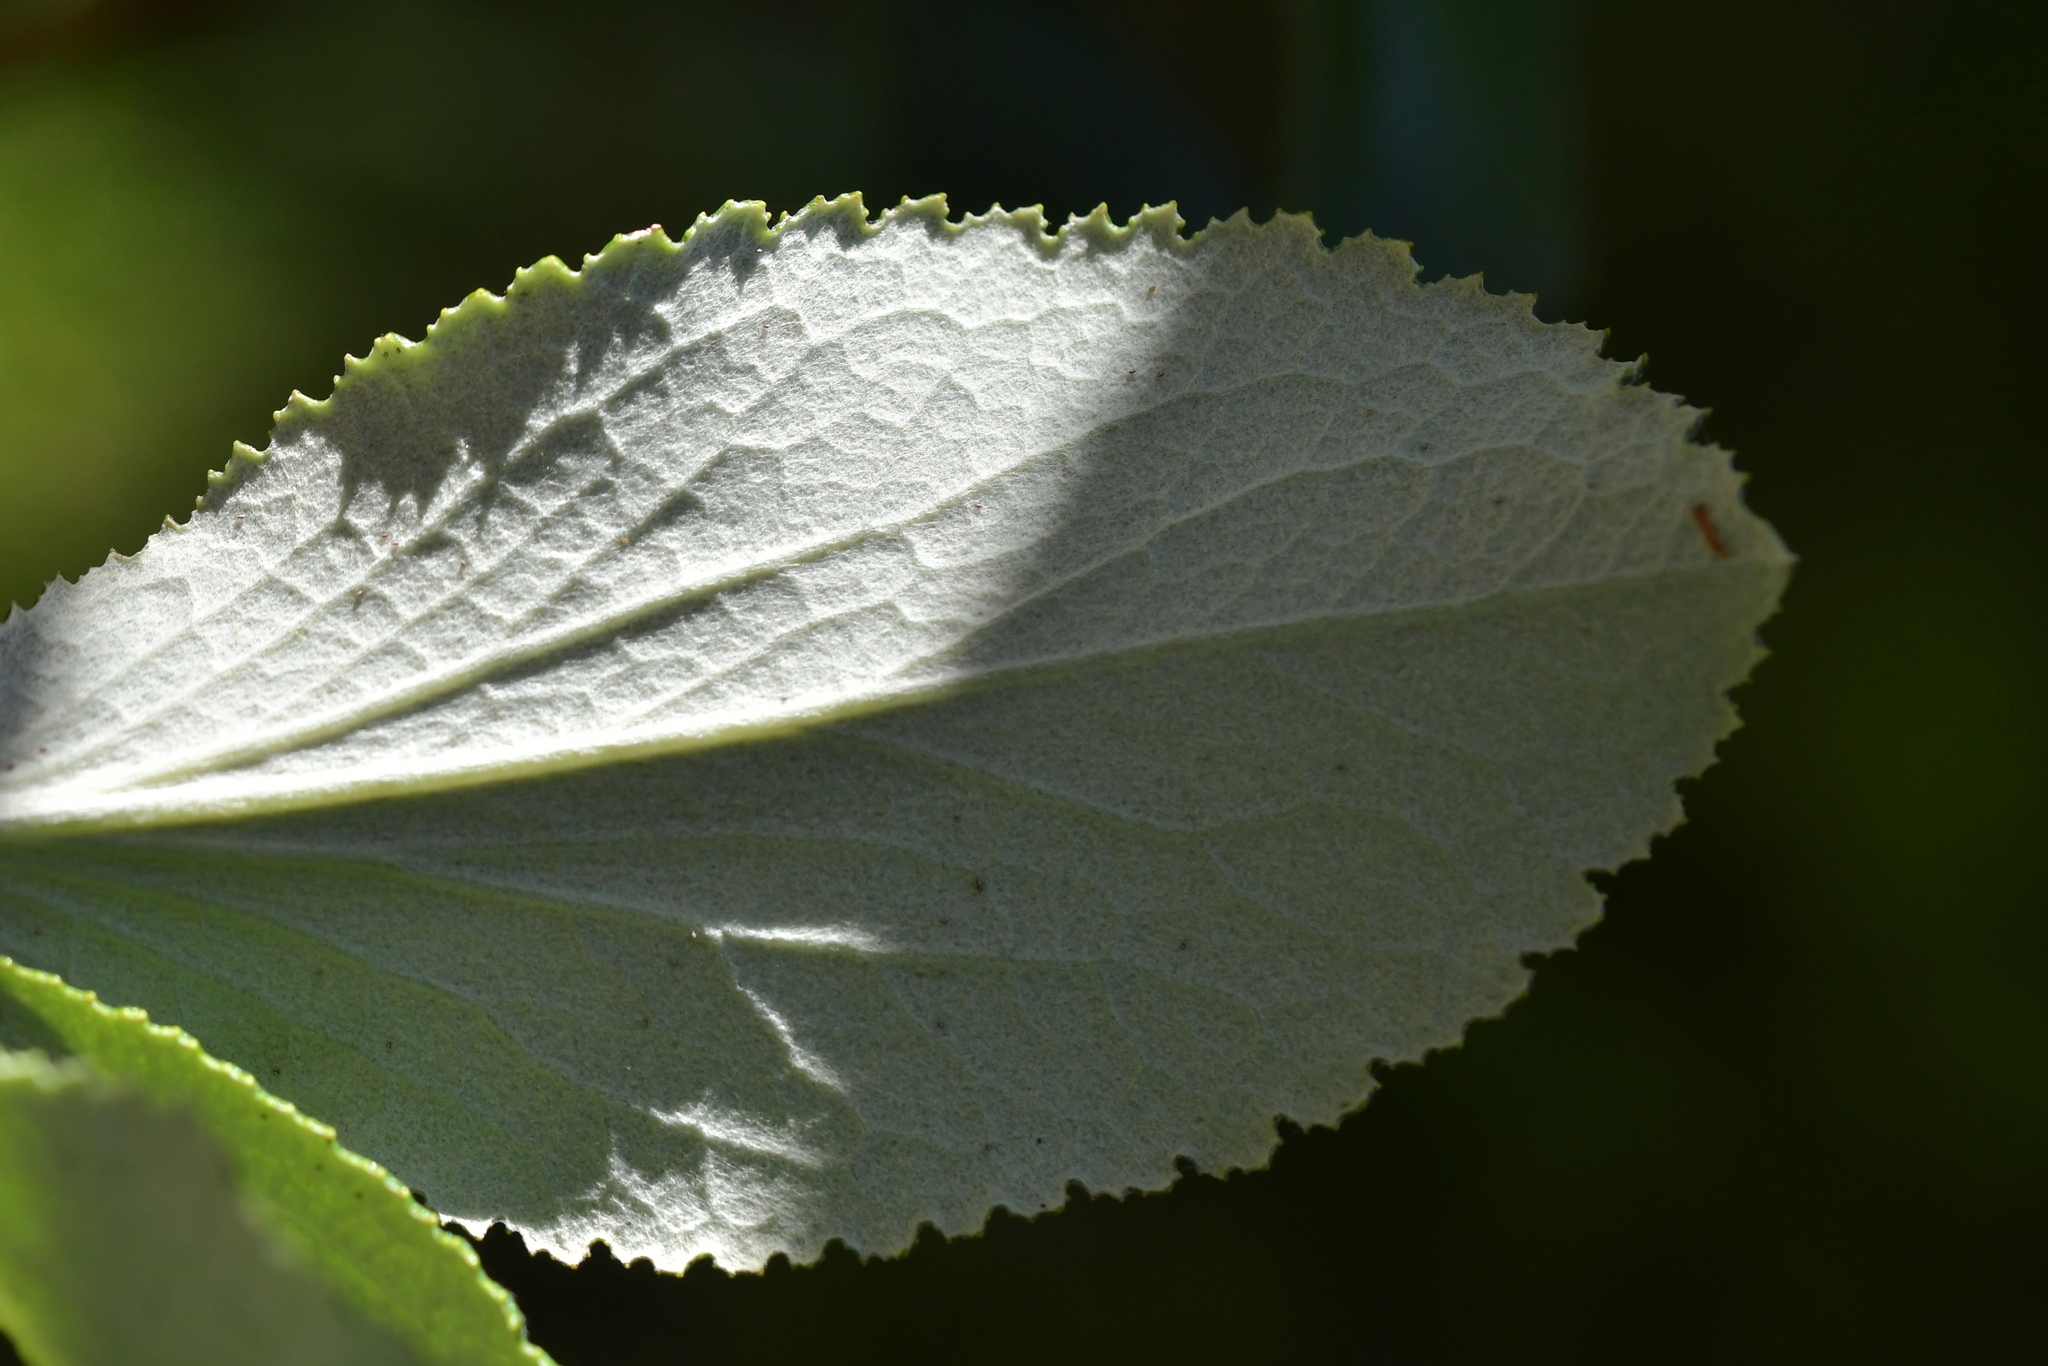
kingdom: Plantae
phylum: Tracheophyta
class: Magnoliopsida
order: Asterales
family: Asteraceae
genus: Macrolearia
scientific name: Macrolearia colensoi
